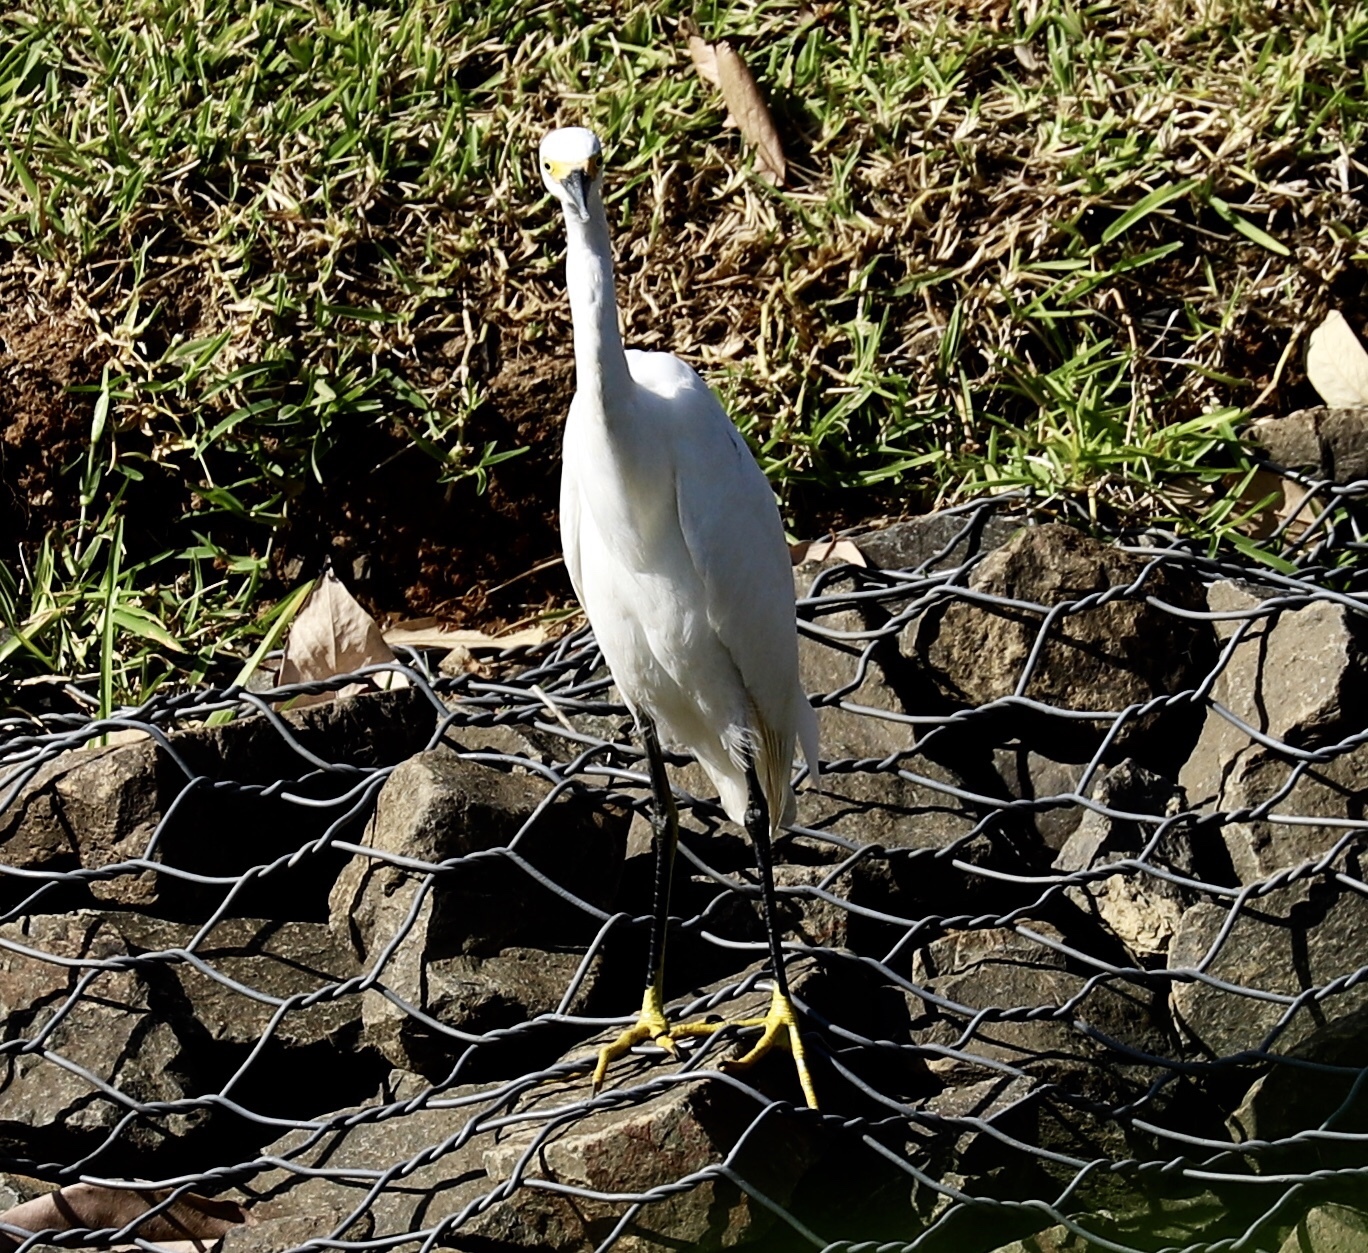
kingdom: Animalia
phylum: Chordata
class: Aves
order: Pelecaniformes
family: Ardeidae
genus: Egretta
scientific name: Egretta thula
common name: Snowy egret
